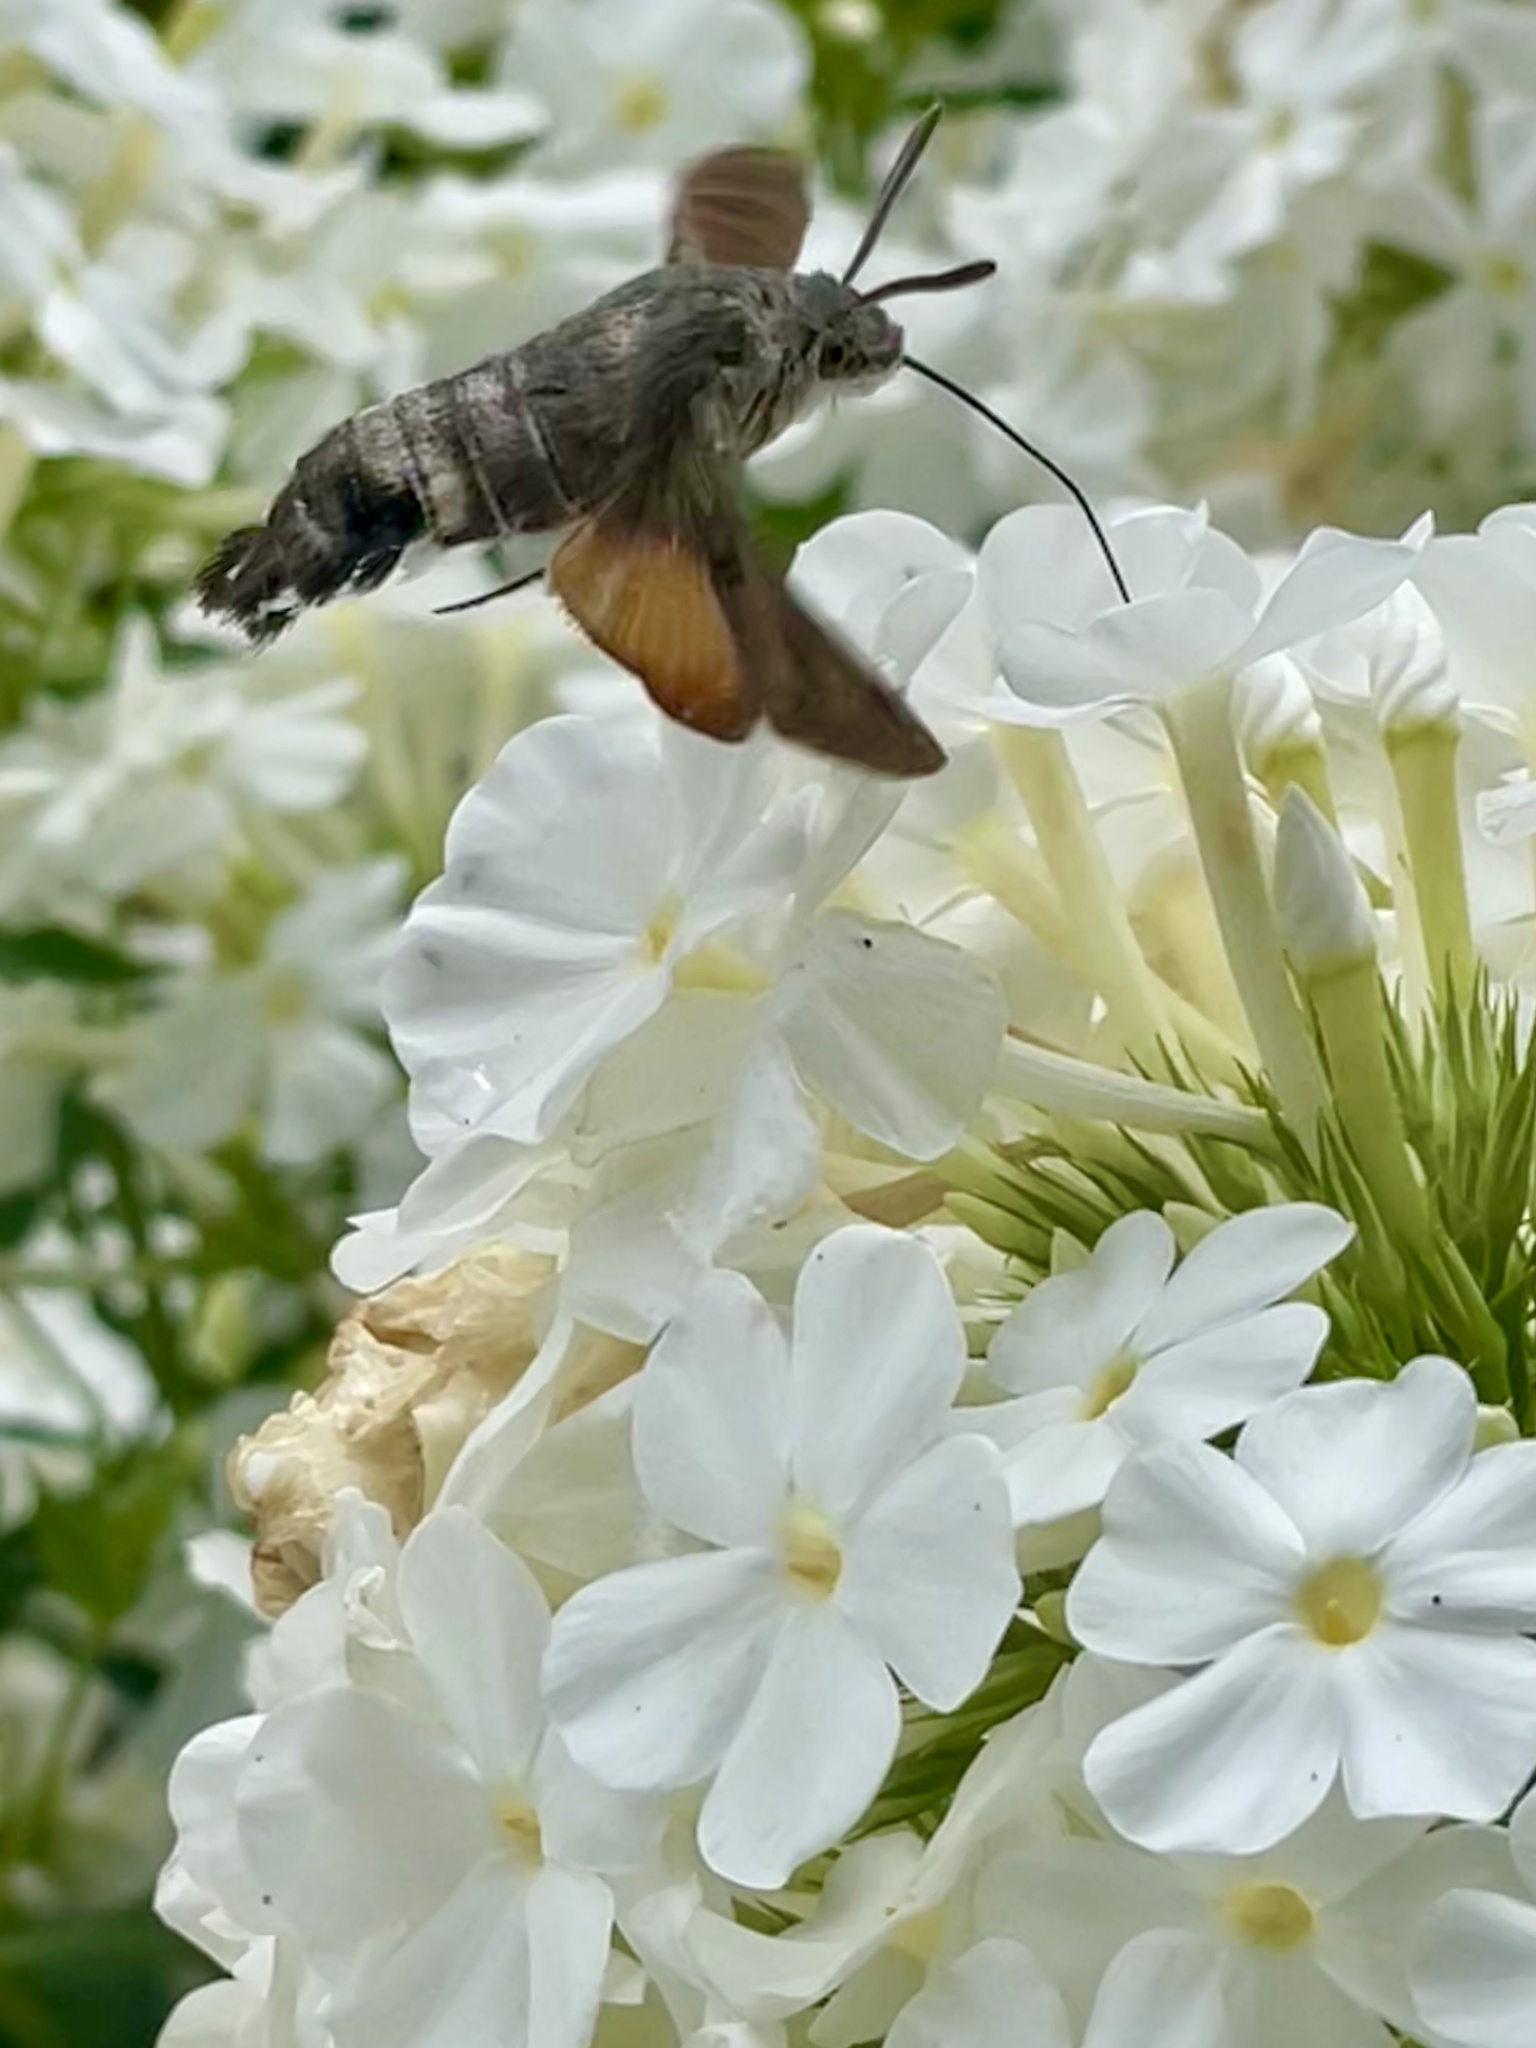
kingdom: Animalia
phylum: Arthropoda
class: Insecta
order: Lepidoptera
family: Sphingidae
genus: Macroglossum
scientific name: Macroglossum stellatarum
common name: Humming-bird hawk-moth
